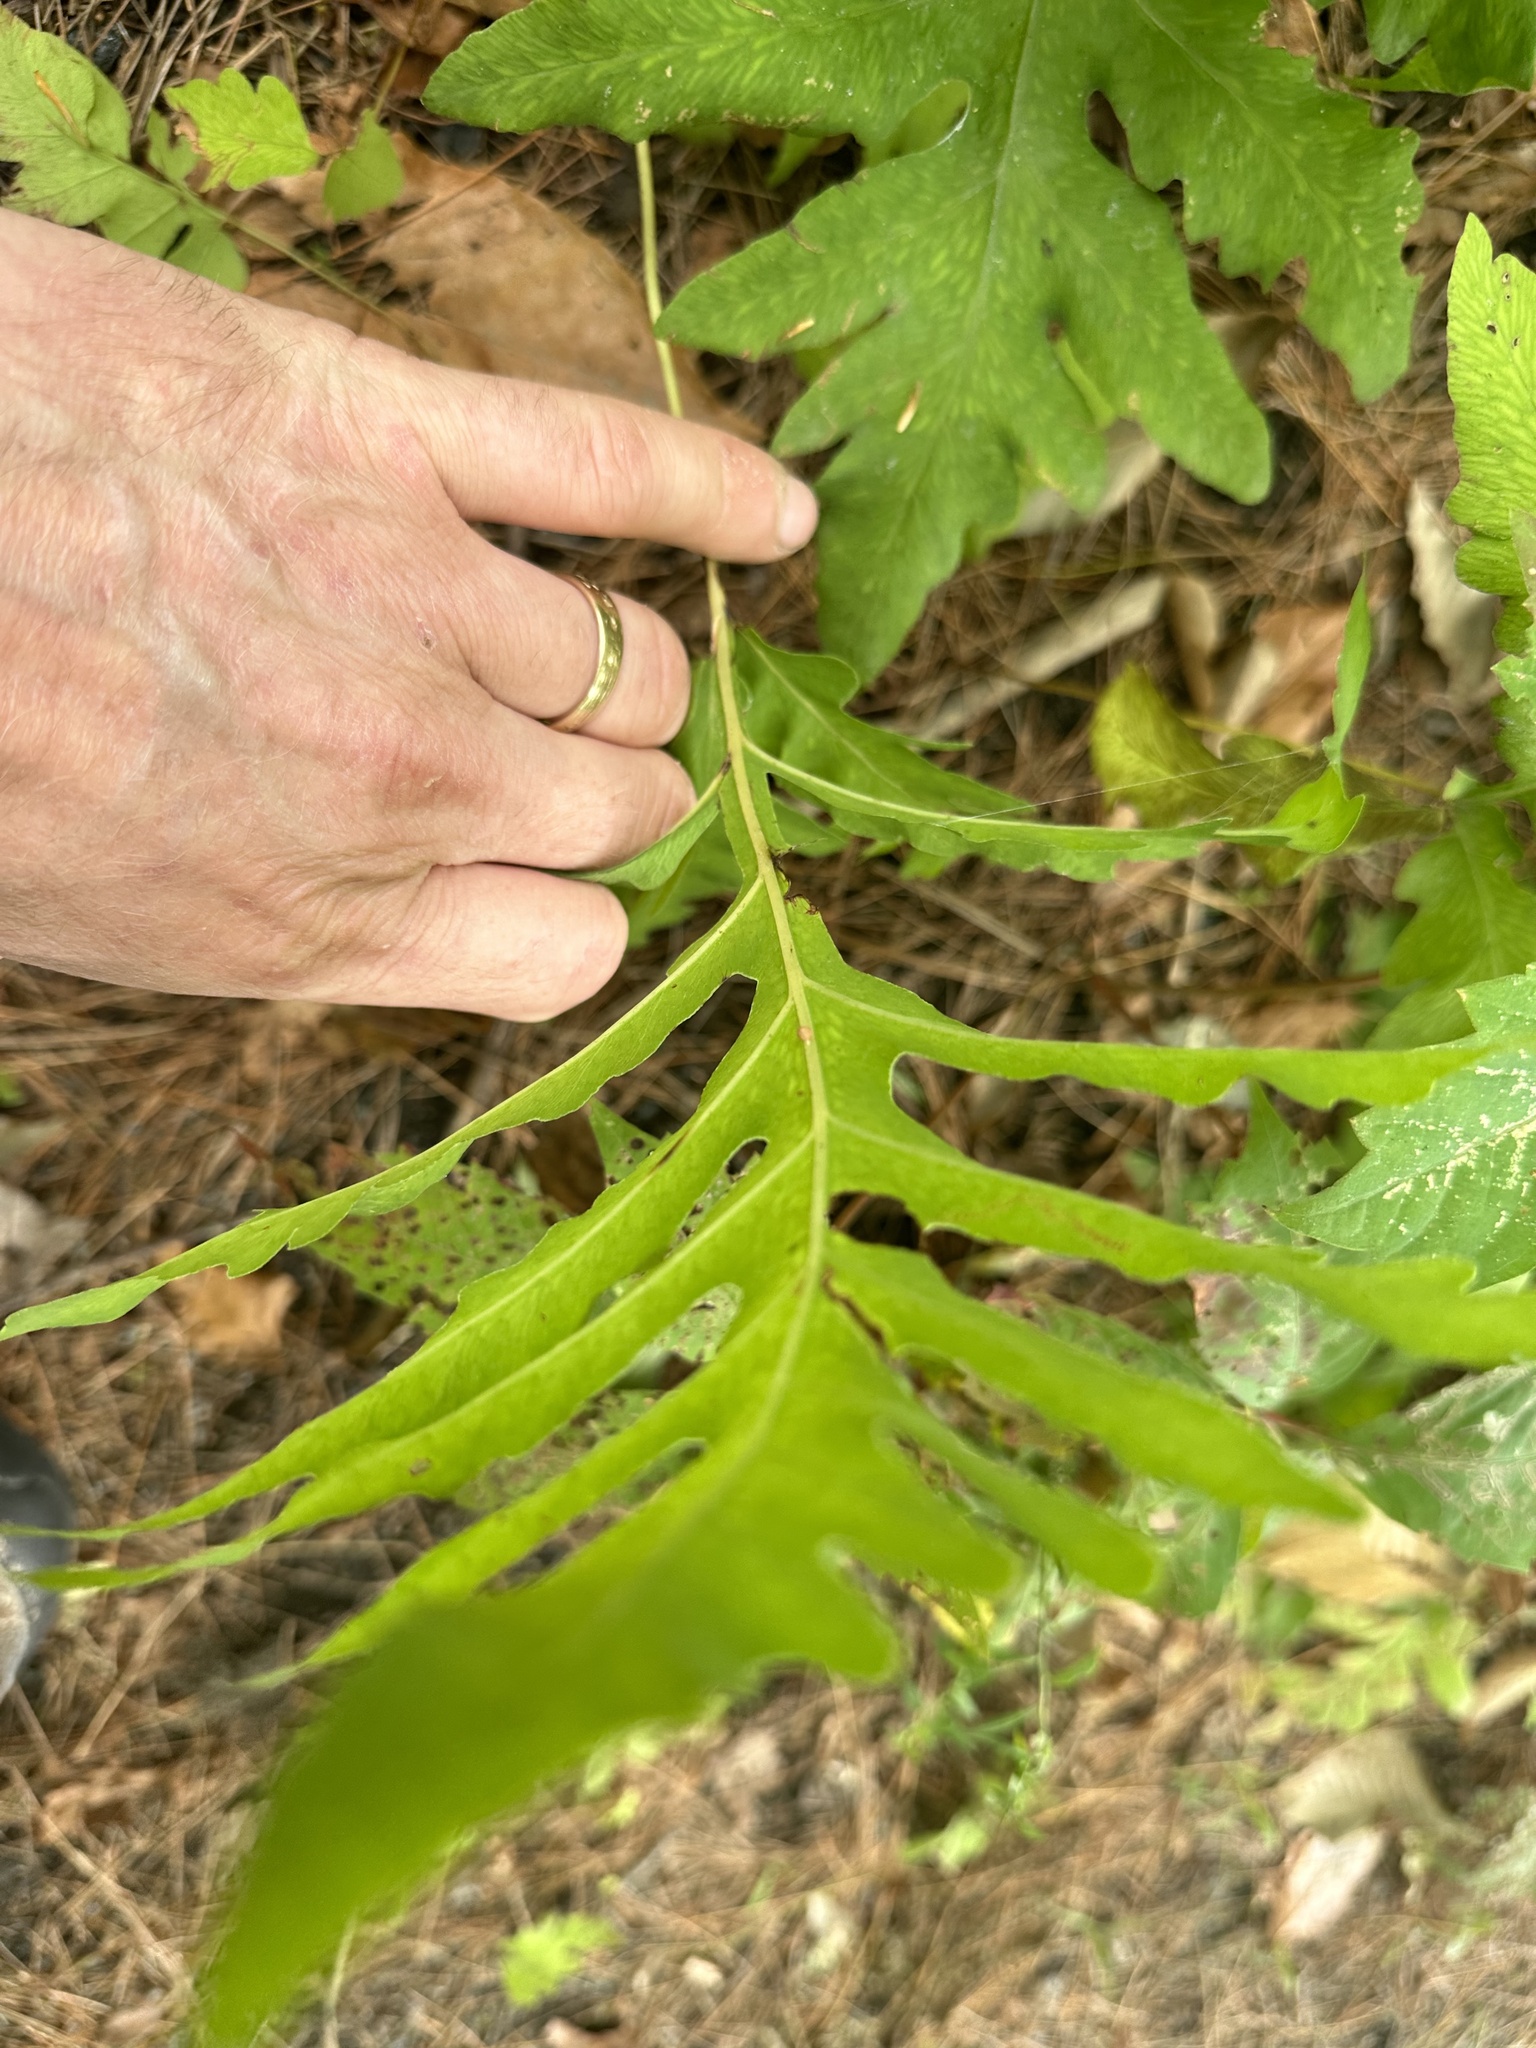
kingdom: Plantae
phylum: Tracheophyta
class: Polypodiopsida
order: Polypodiales
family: Onocleaceae
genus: Onoclea
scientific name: Onoclea sensibilis
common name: Sensitive fern
